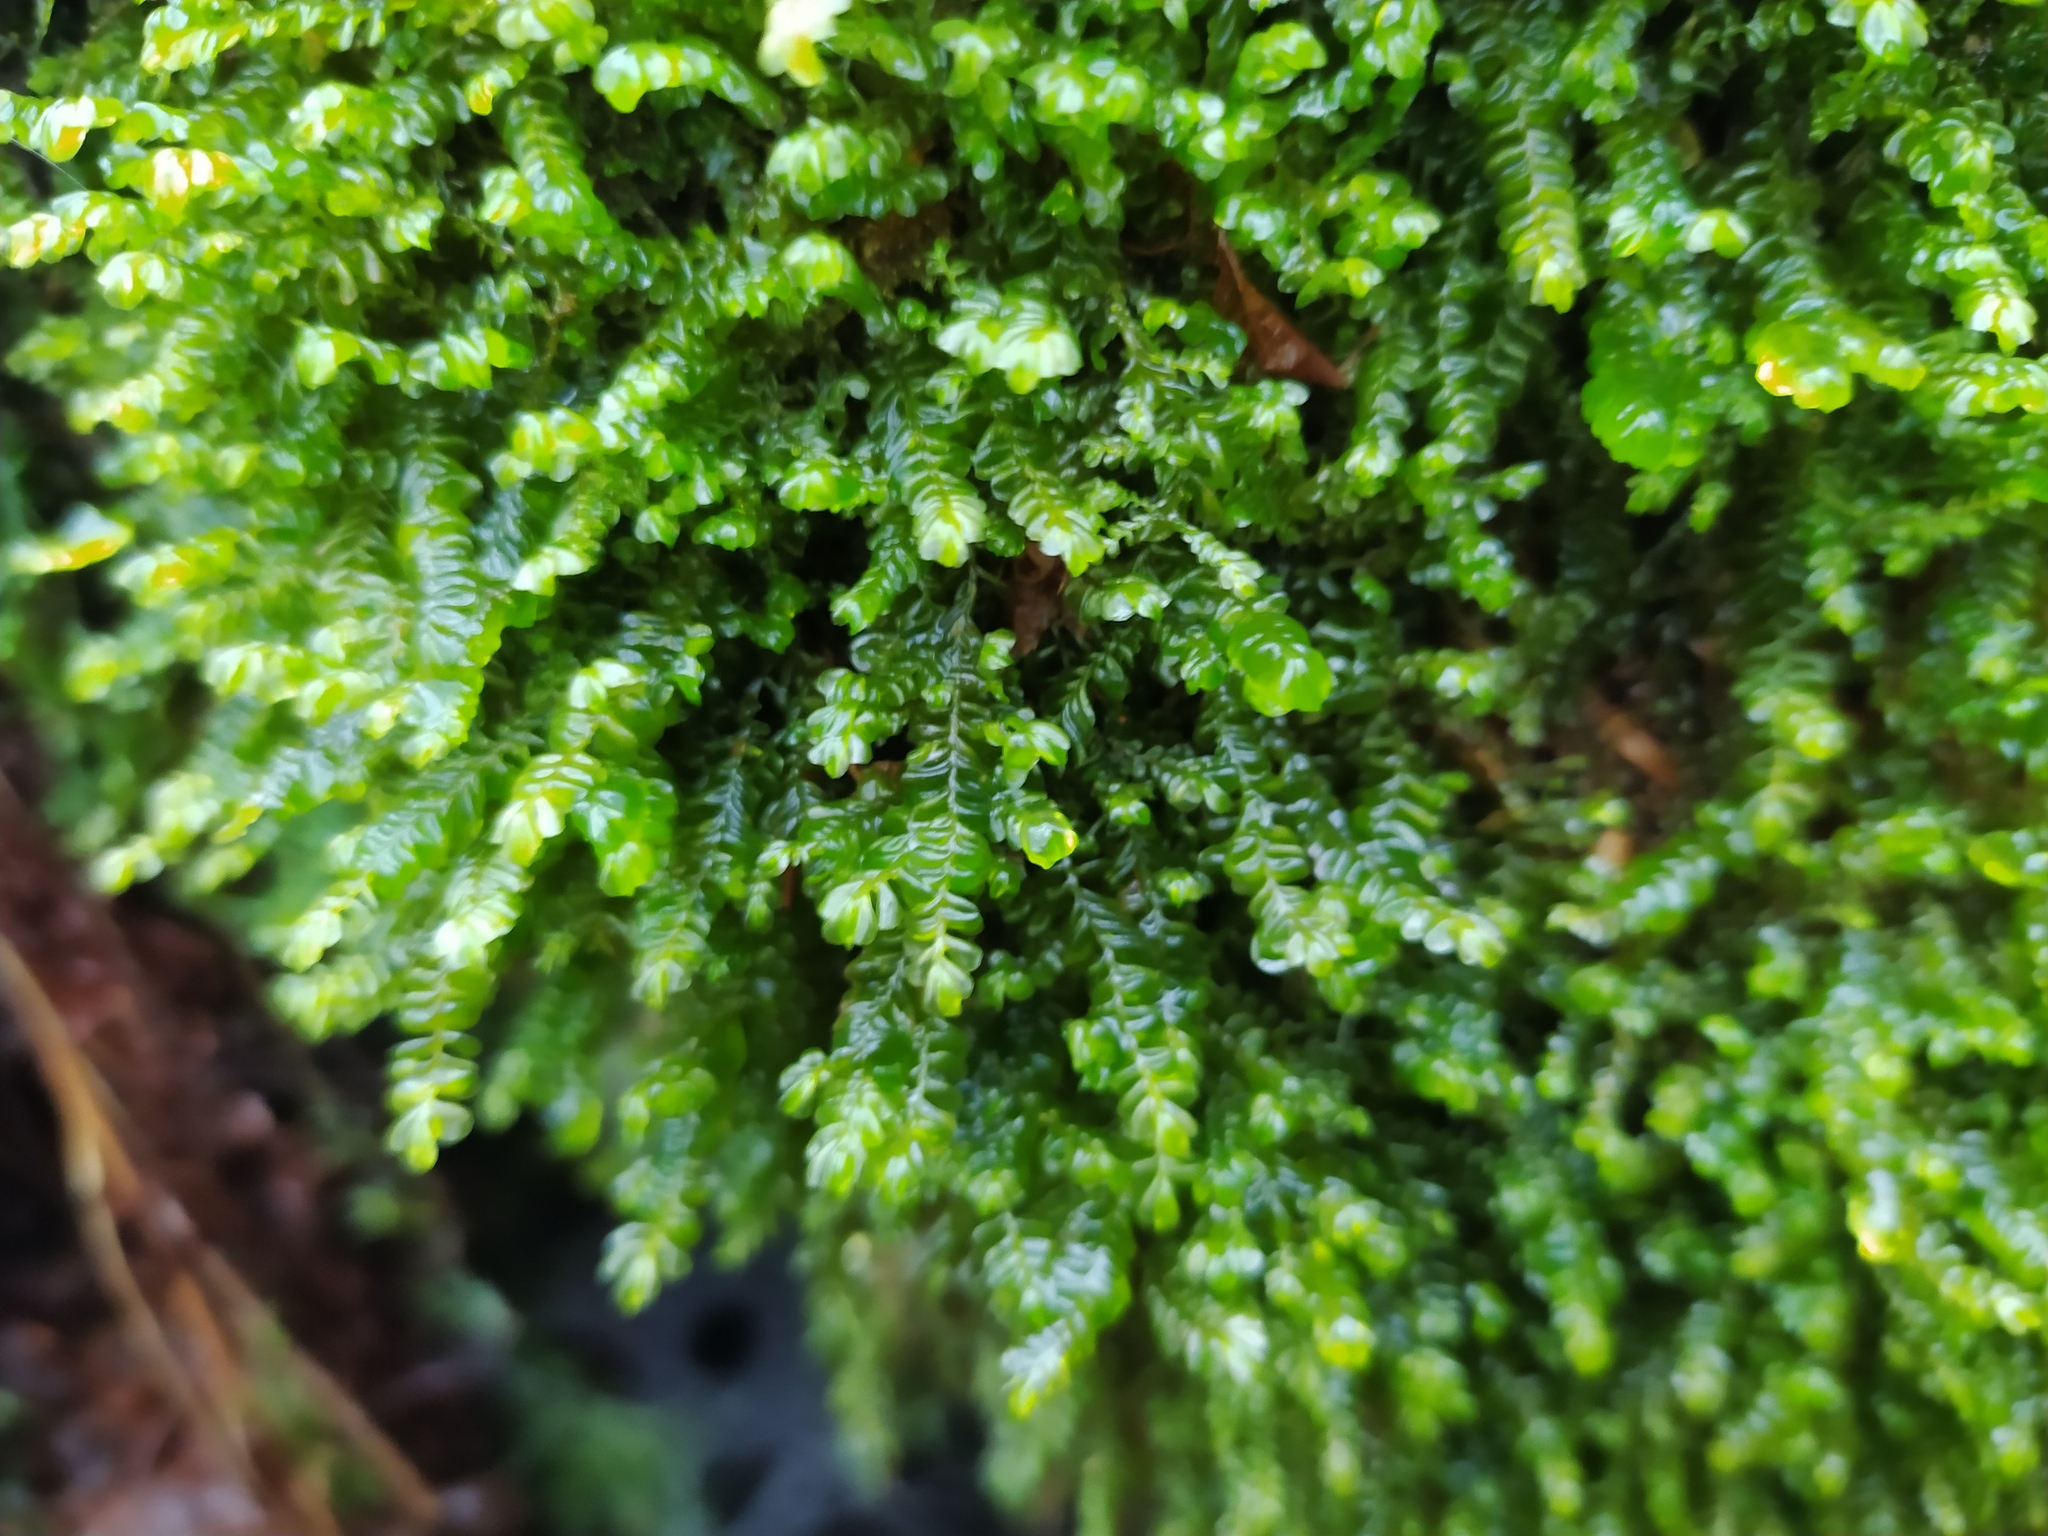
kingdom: Plantae
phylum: Marchantiophyta
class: Jungermanniopsida
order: Jungermanniales
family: Plagiochilaceae
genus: Plagiochila
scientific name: Plagiochila porelloides
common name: Lesser featherwort
